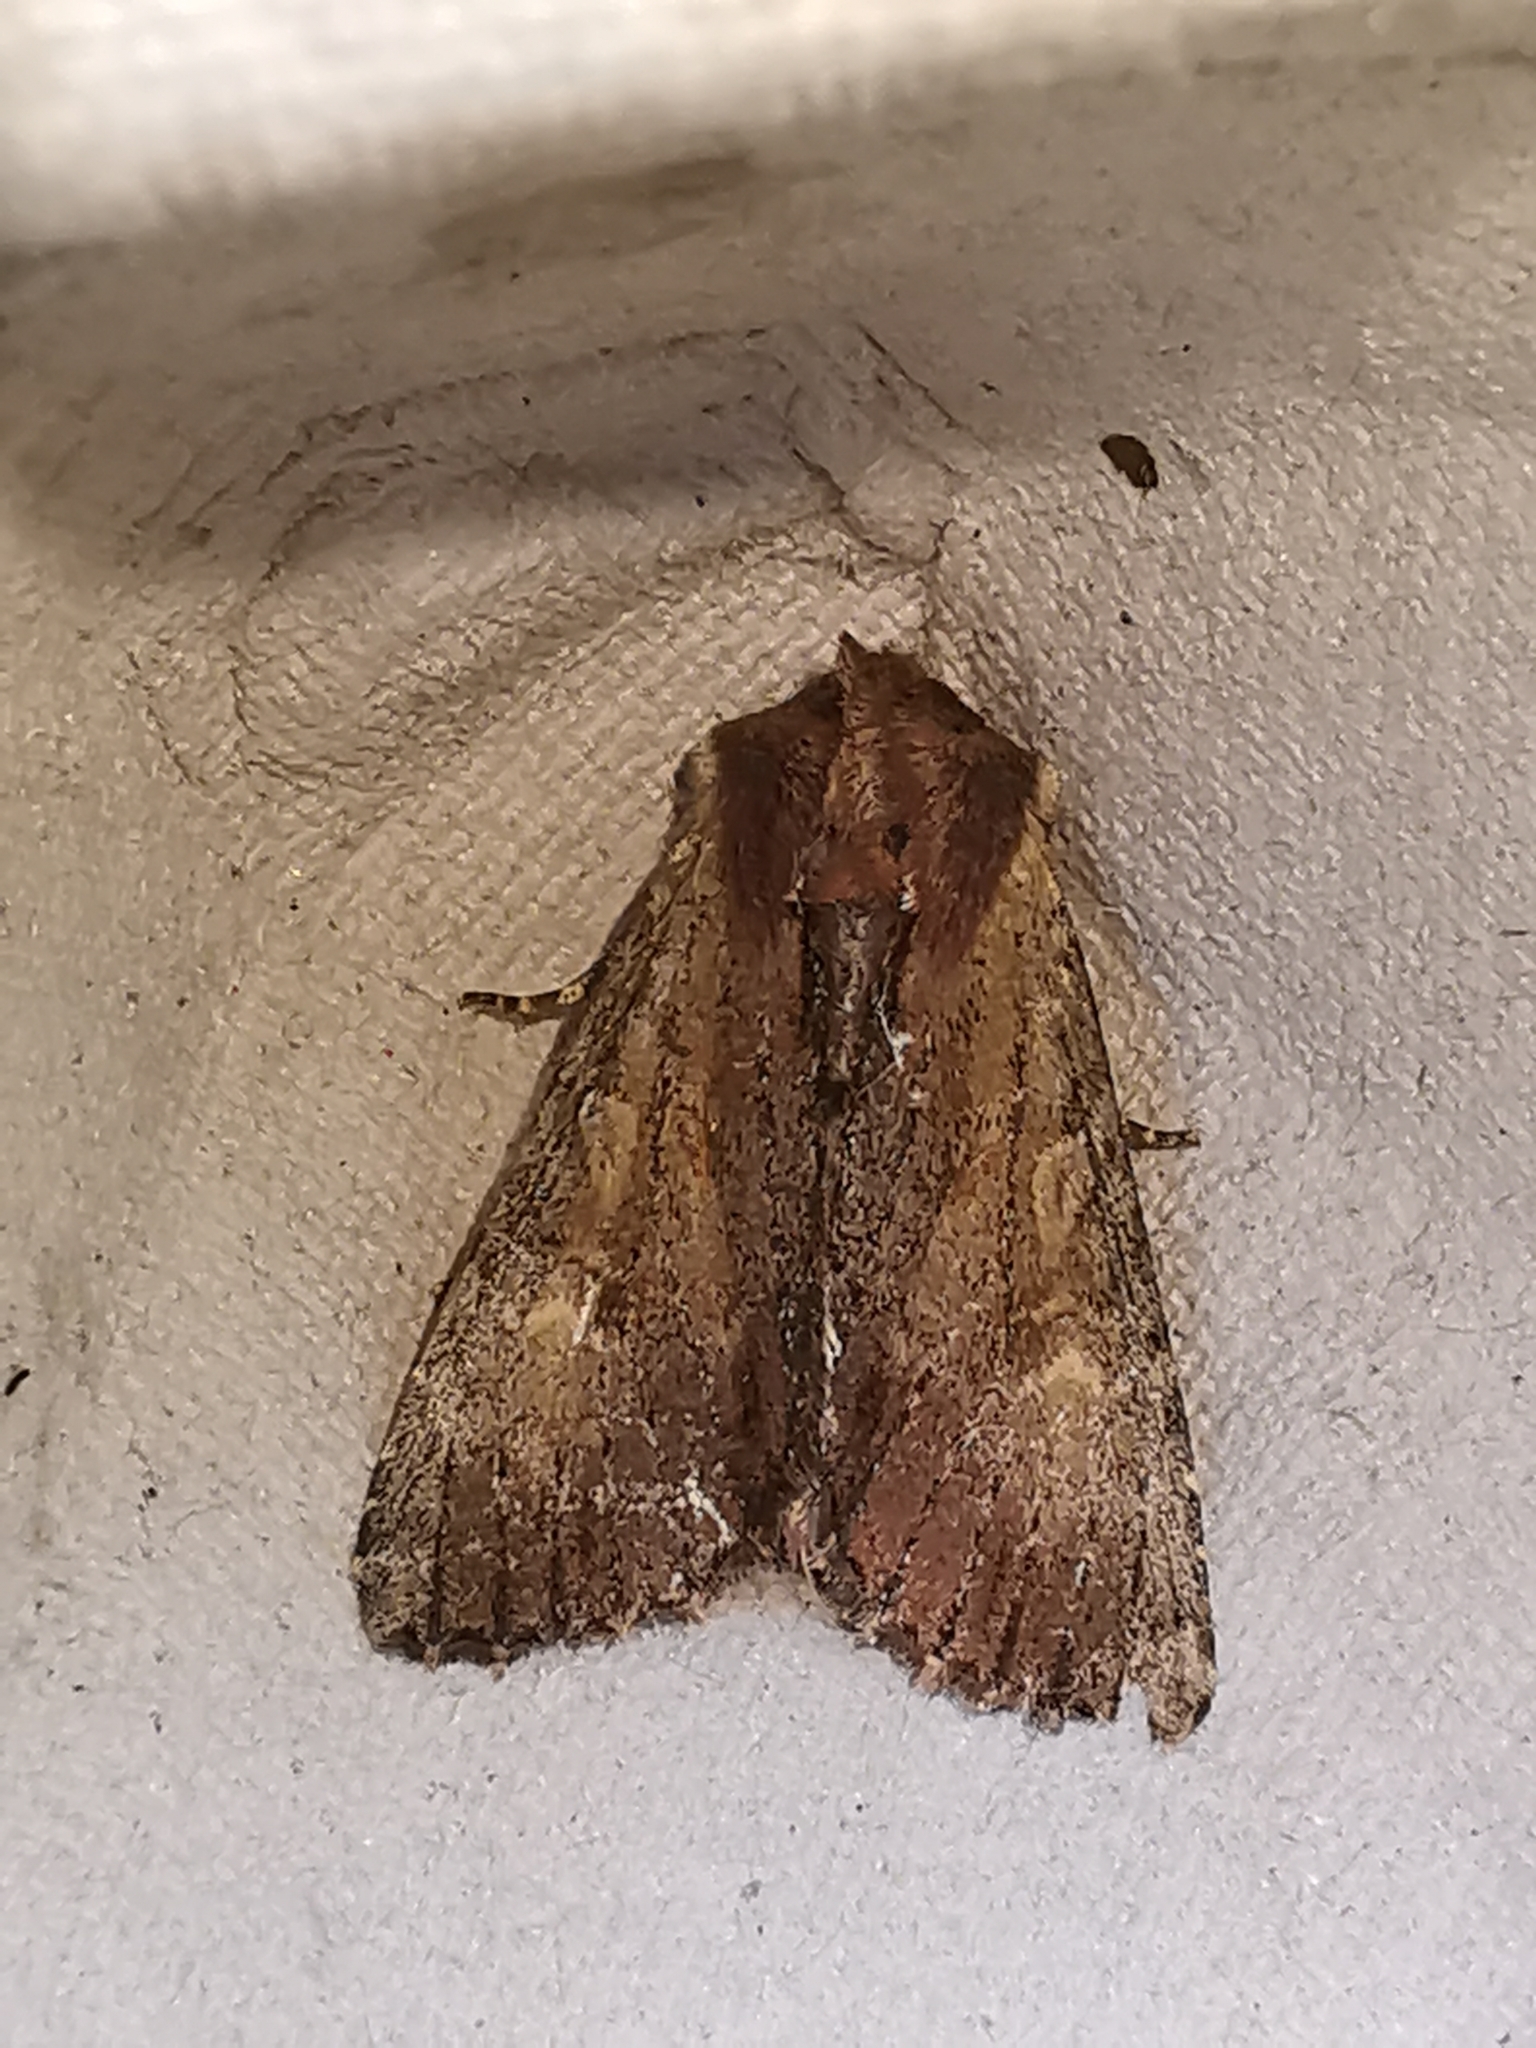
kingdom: Animalia
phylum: Arthropoda
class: Insecta
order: Lepidoptera
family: Noctuidae
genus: Apamea
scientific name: Apamea crenata
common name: Clouded-bordered brindle
